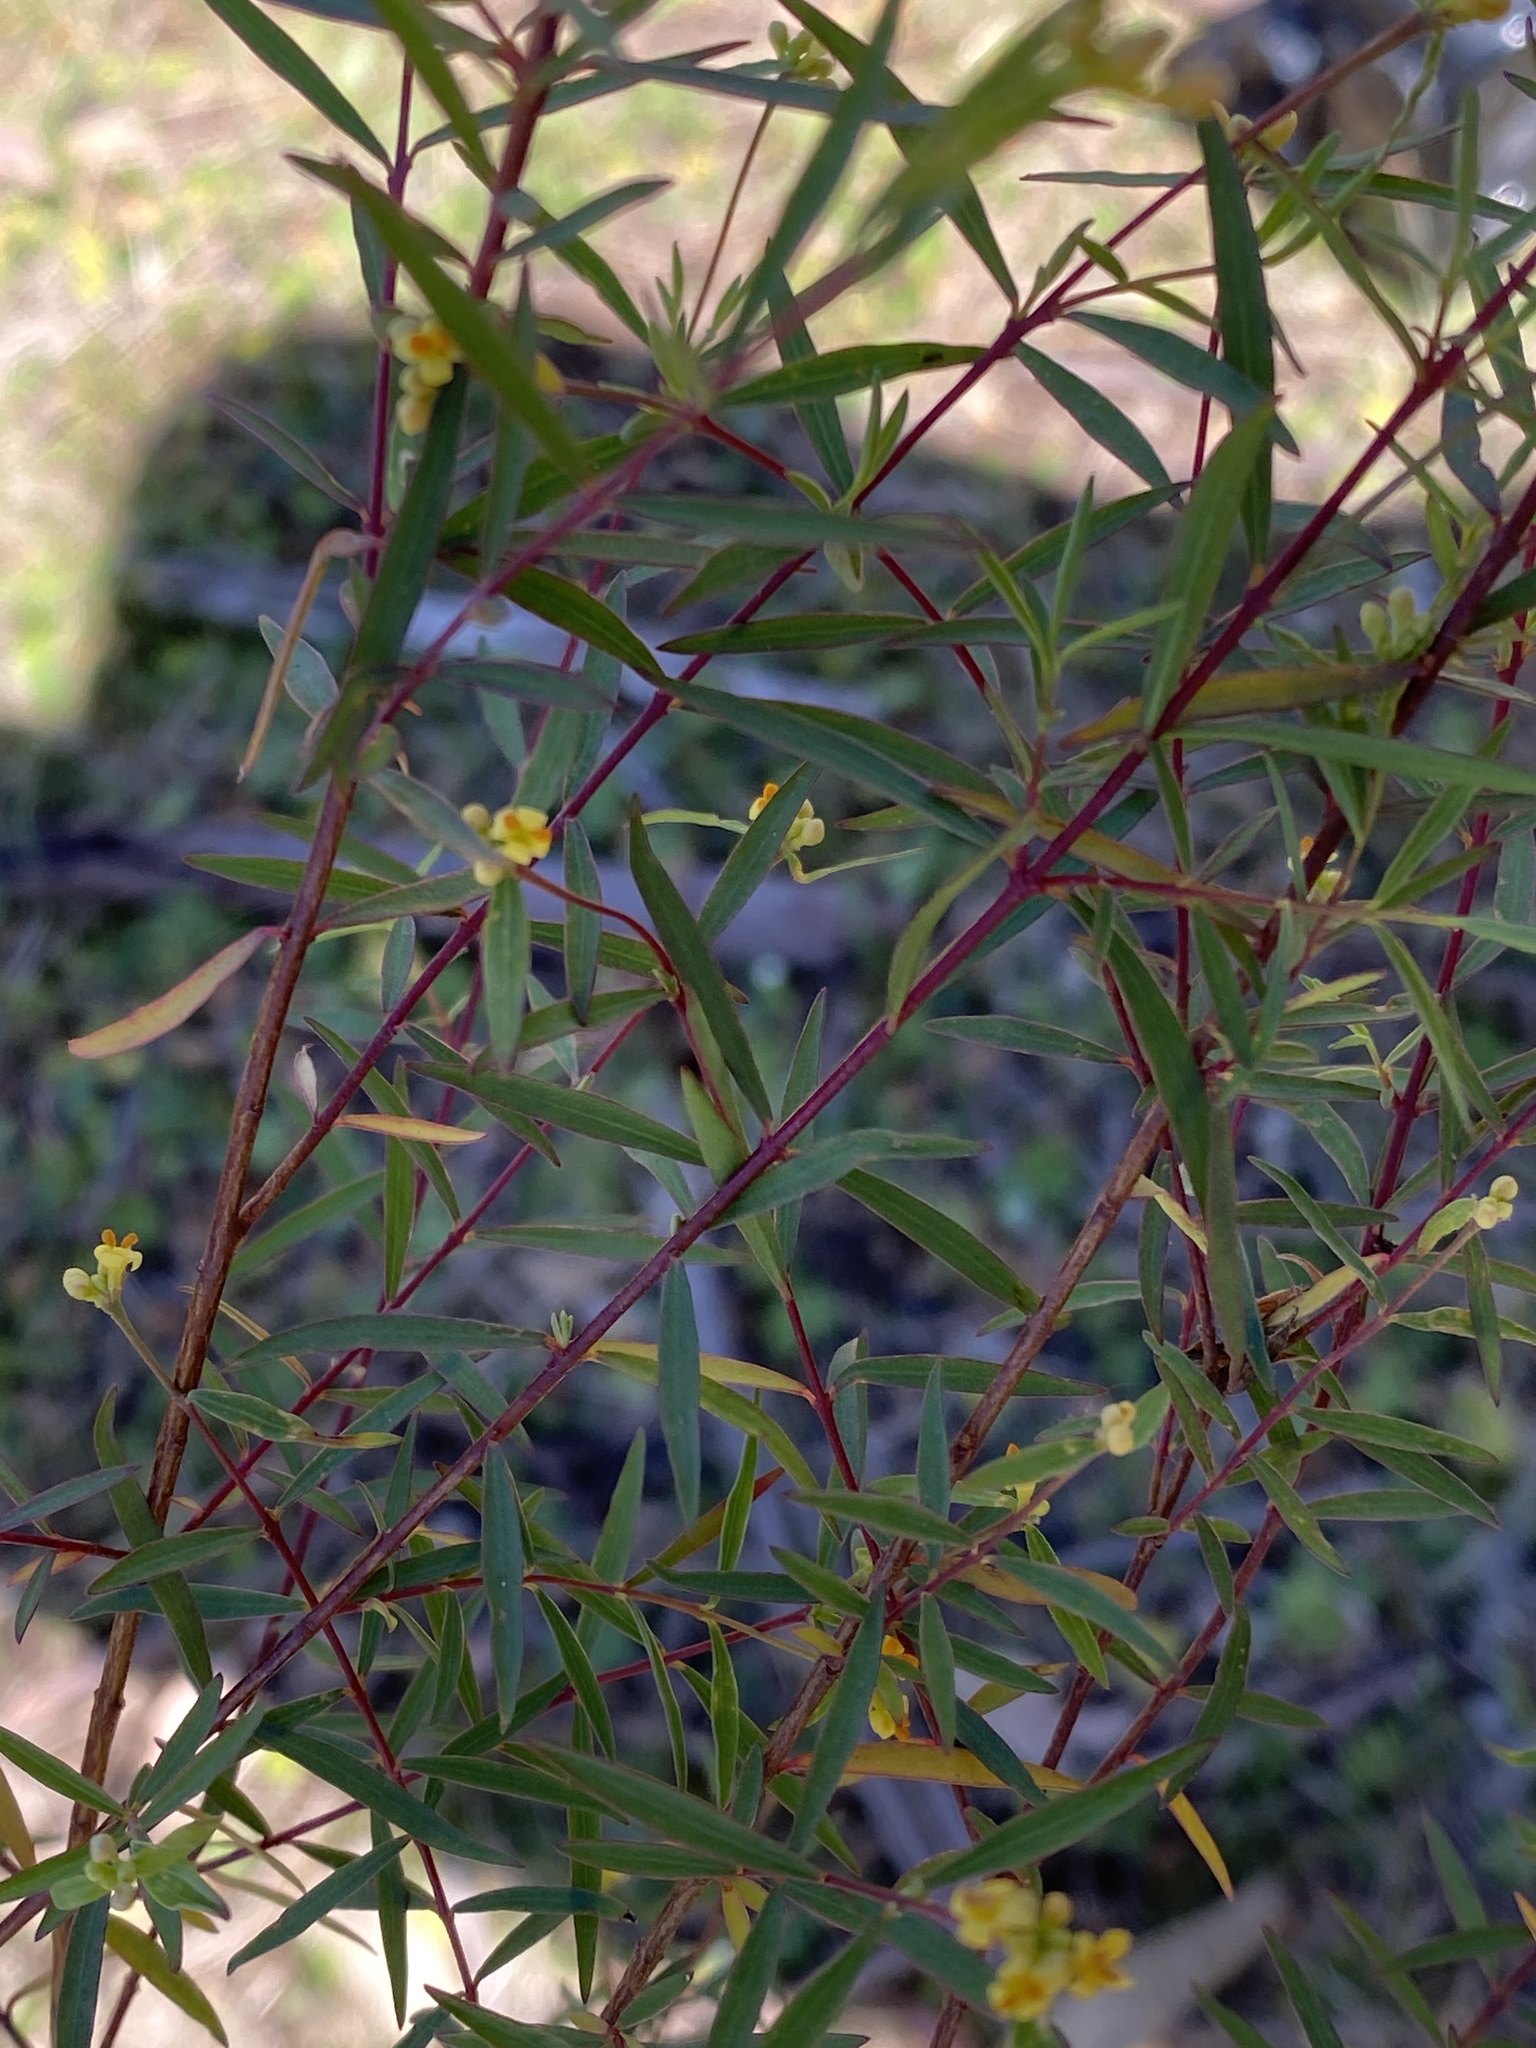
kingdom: Plantae
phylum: Tracheophyta
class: Magnoliopsida
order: Malvales
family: Thymelaeaceae
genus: Pimelea
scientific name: Pimelea neoanglica
